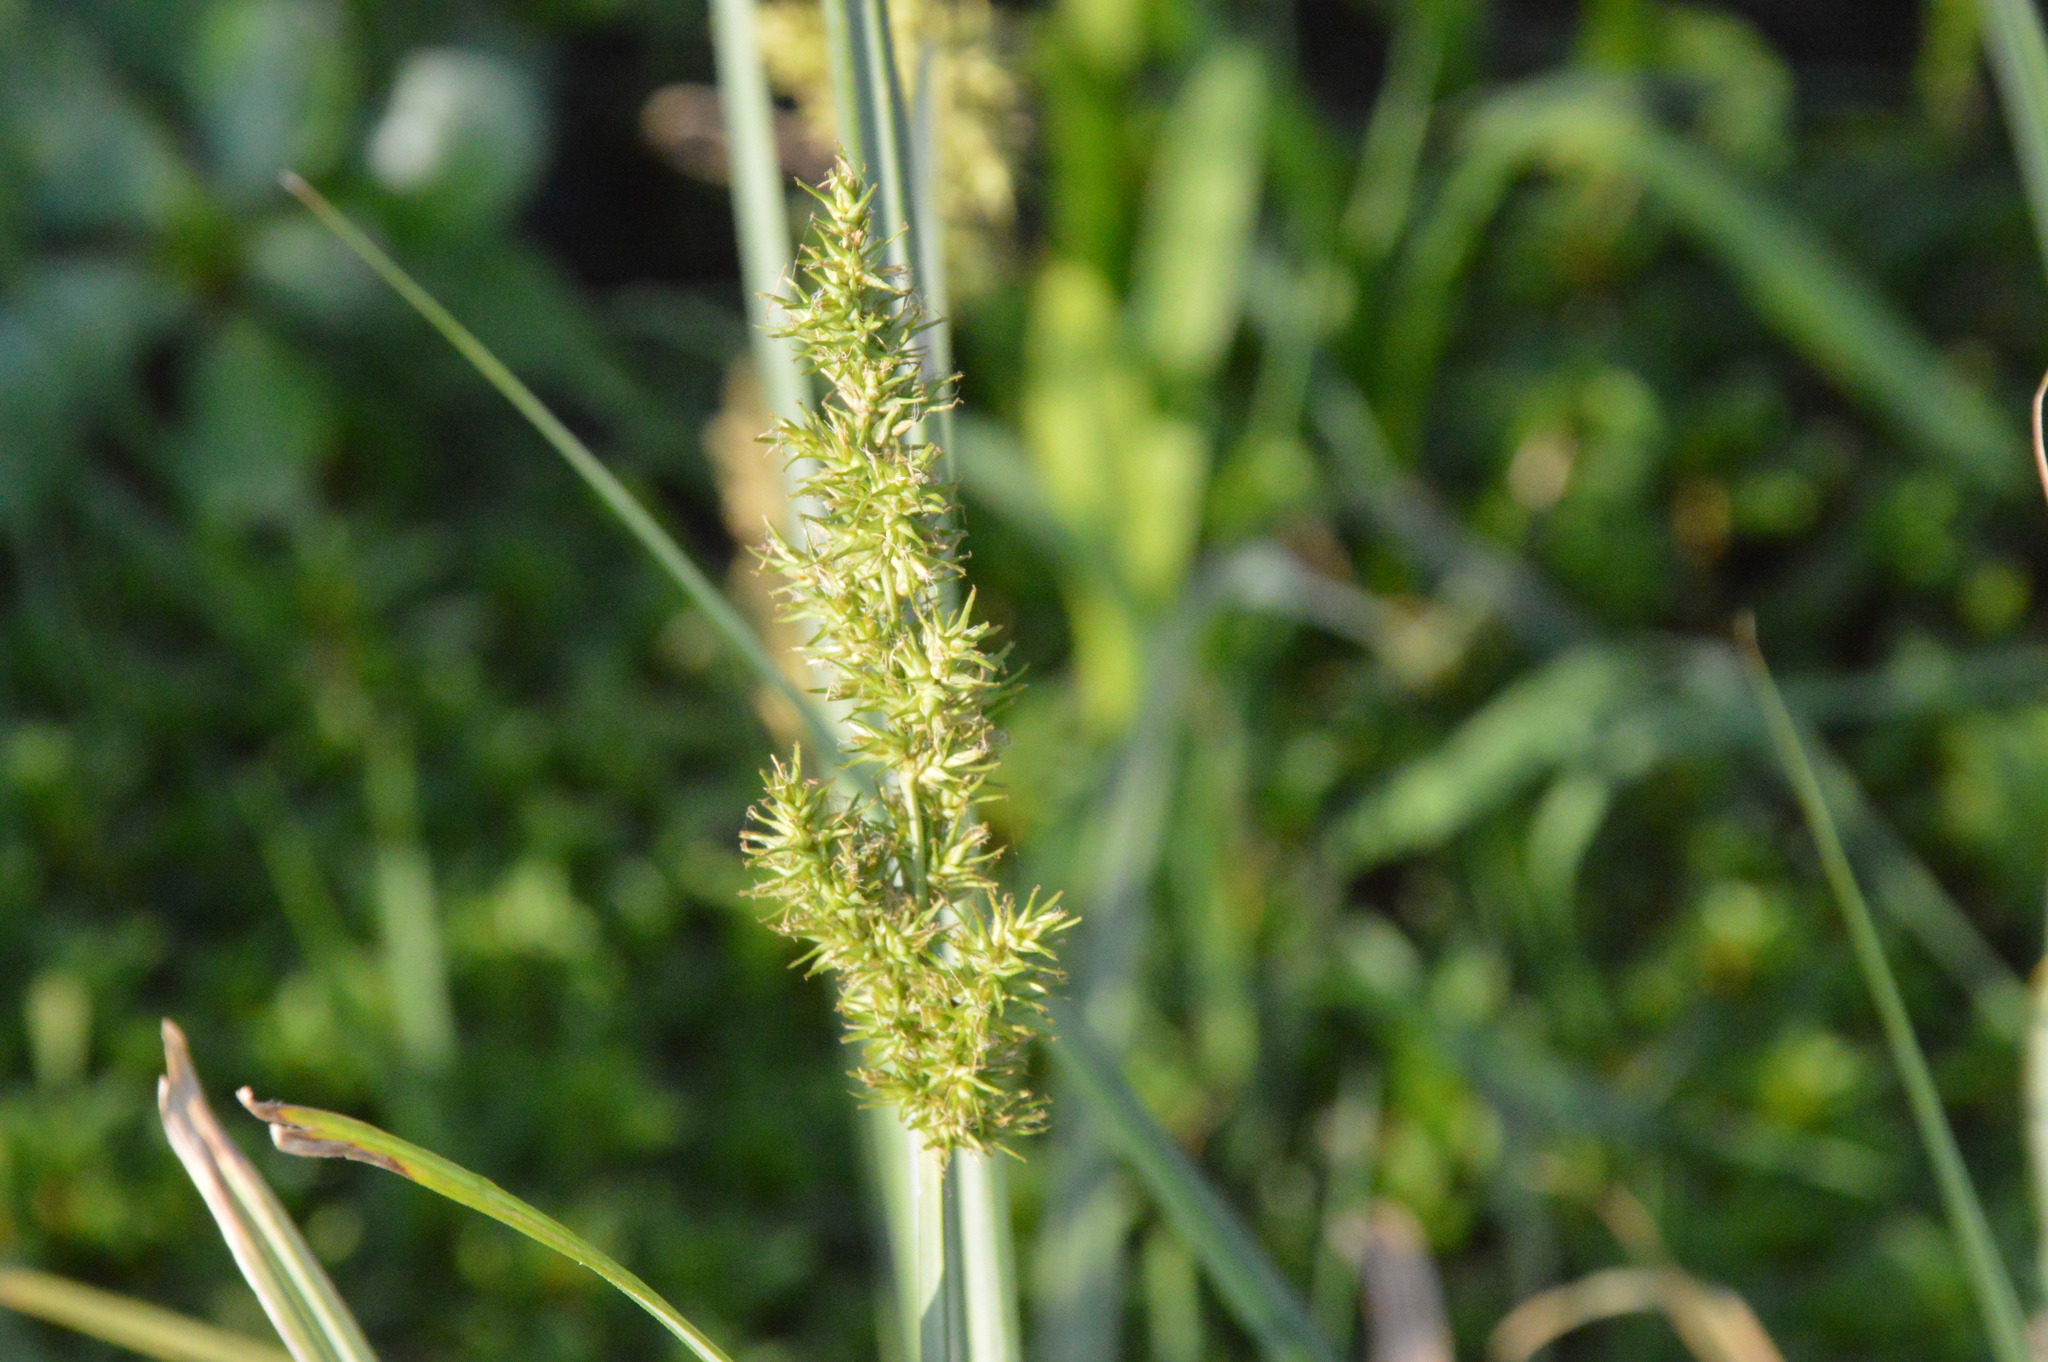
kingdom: Plantae
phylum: Tracheophyta
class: Liliopsida
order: Poales
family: Cyperaceae
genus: Carex
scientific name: Carex crus-corvi
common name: Crow-spur sedge
